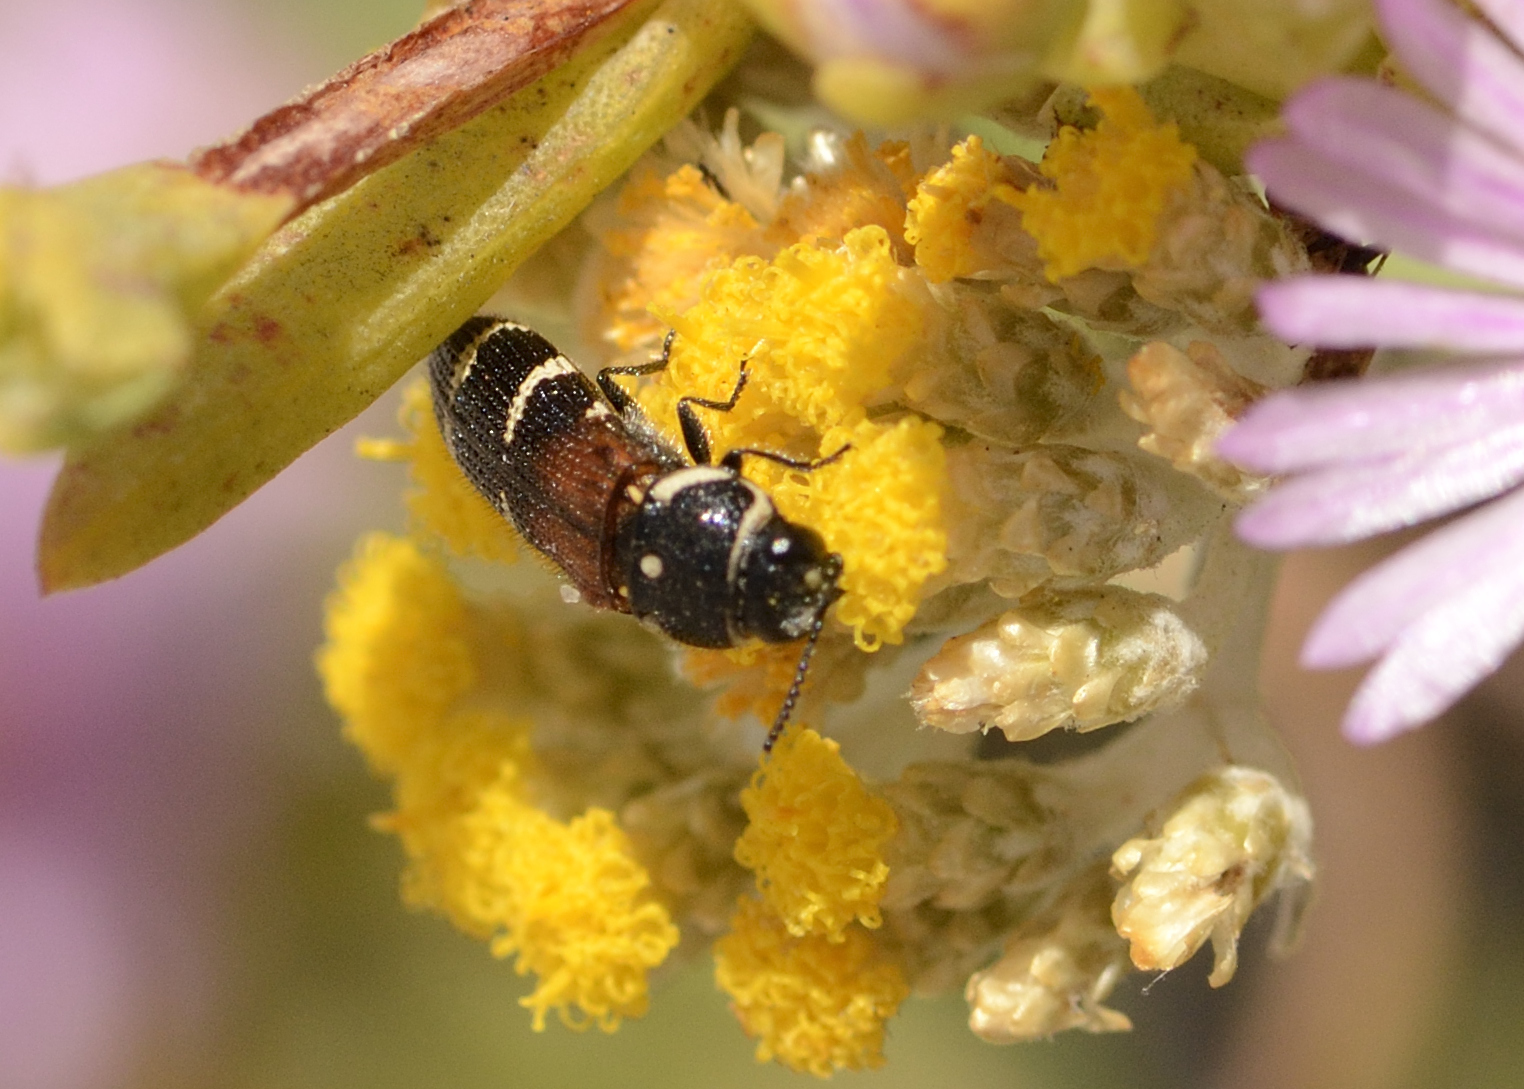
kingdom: Animalia
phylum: Arthropoda
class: Insecta
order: Coleoptera
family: Buprestidae
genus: Acmaeodera
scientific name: Acmaeodera trifasciata
